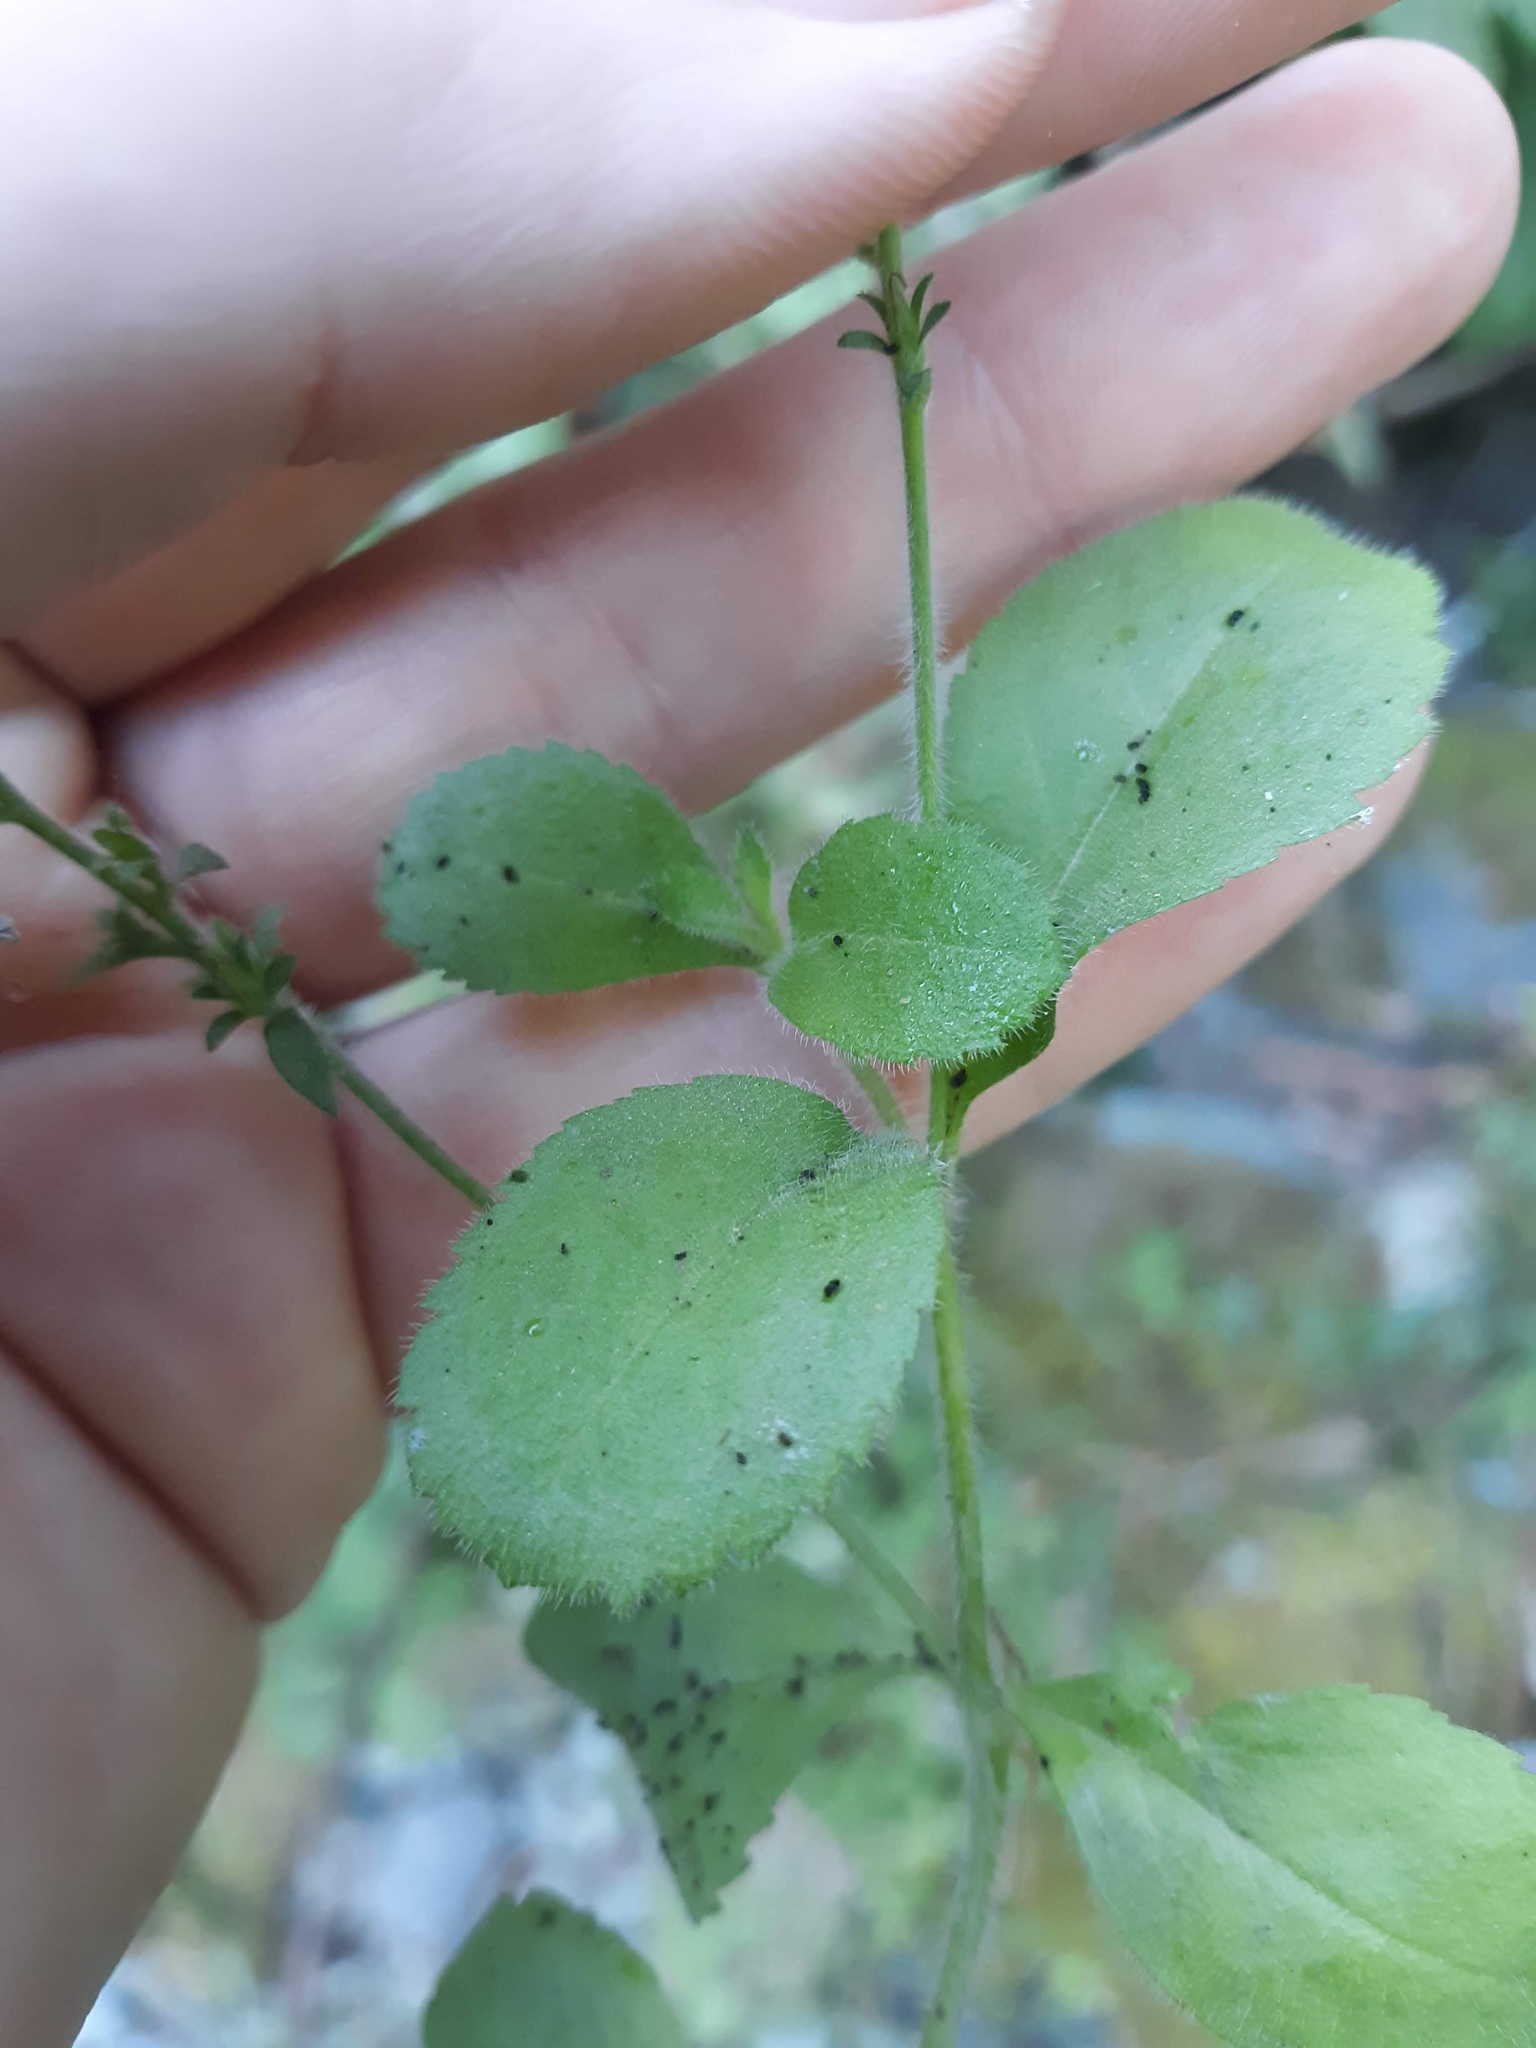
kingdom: Plantae
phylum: Tracheophyta
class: Magnoliopsida
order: Lamiales
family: Plantaginaceae
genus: Veronica
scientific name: Veronica officinalis
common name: Common speedwell
